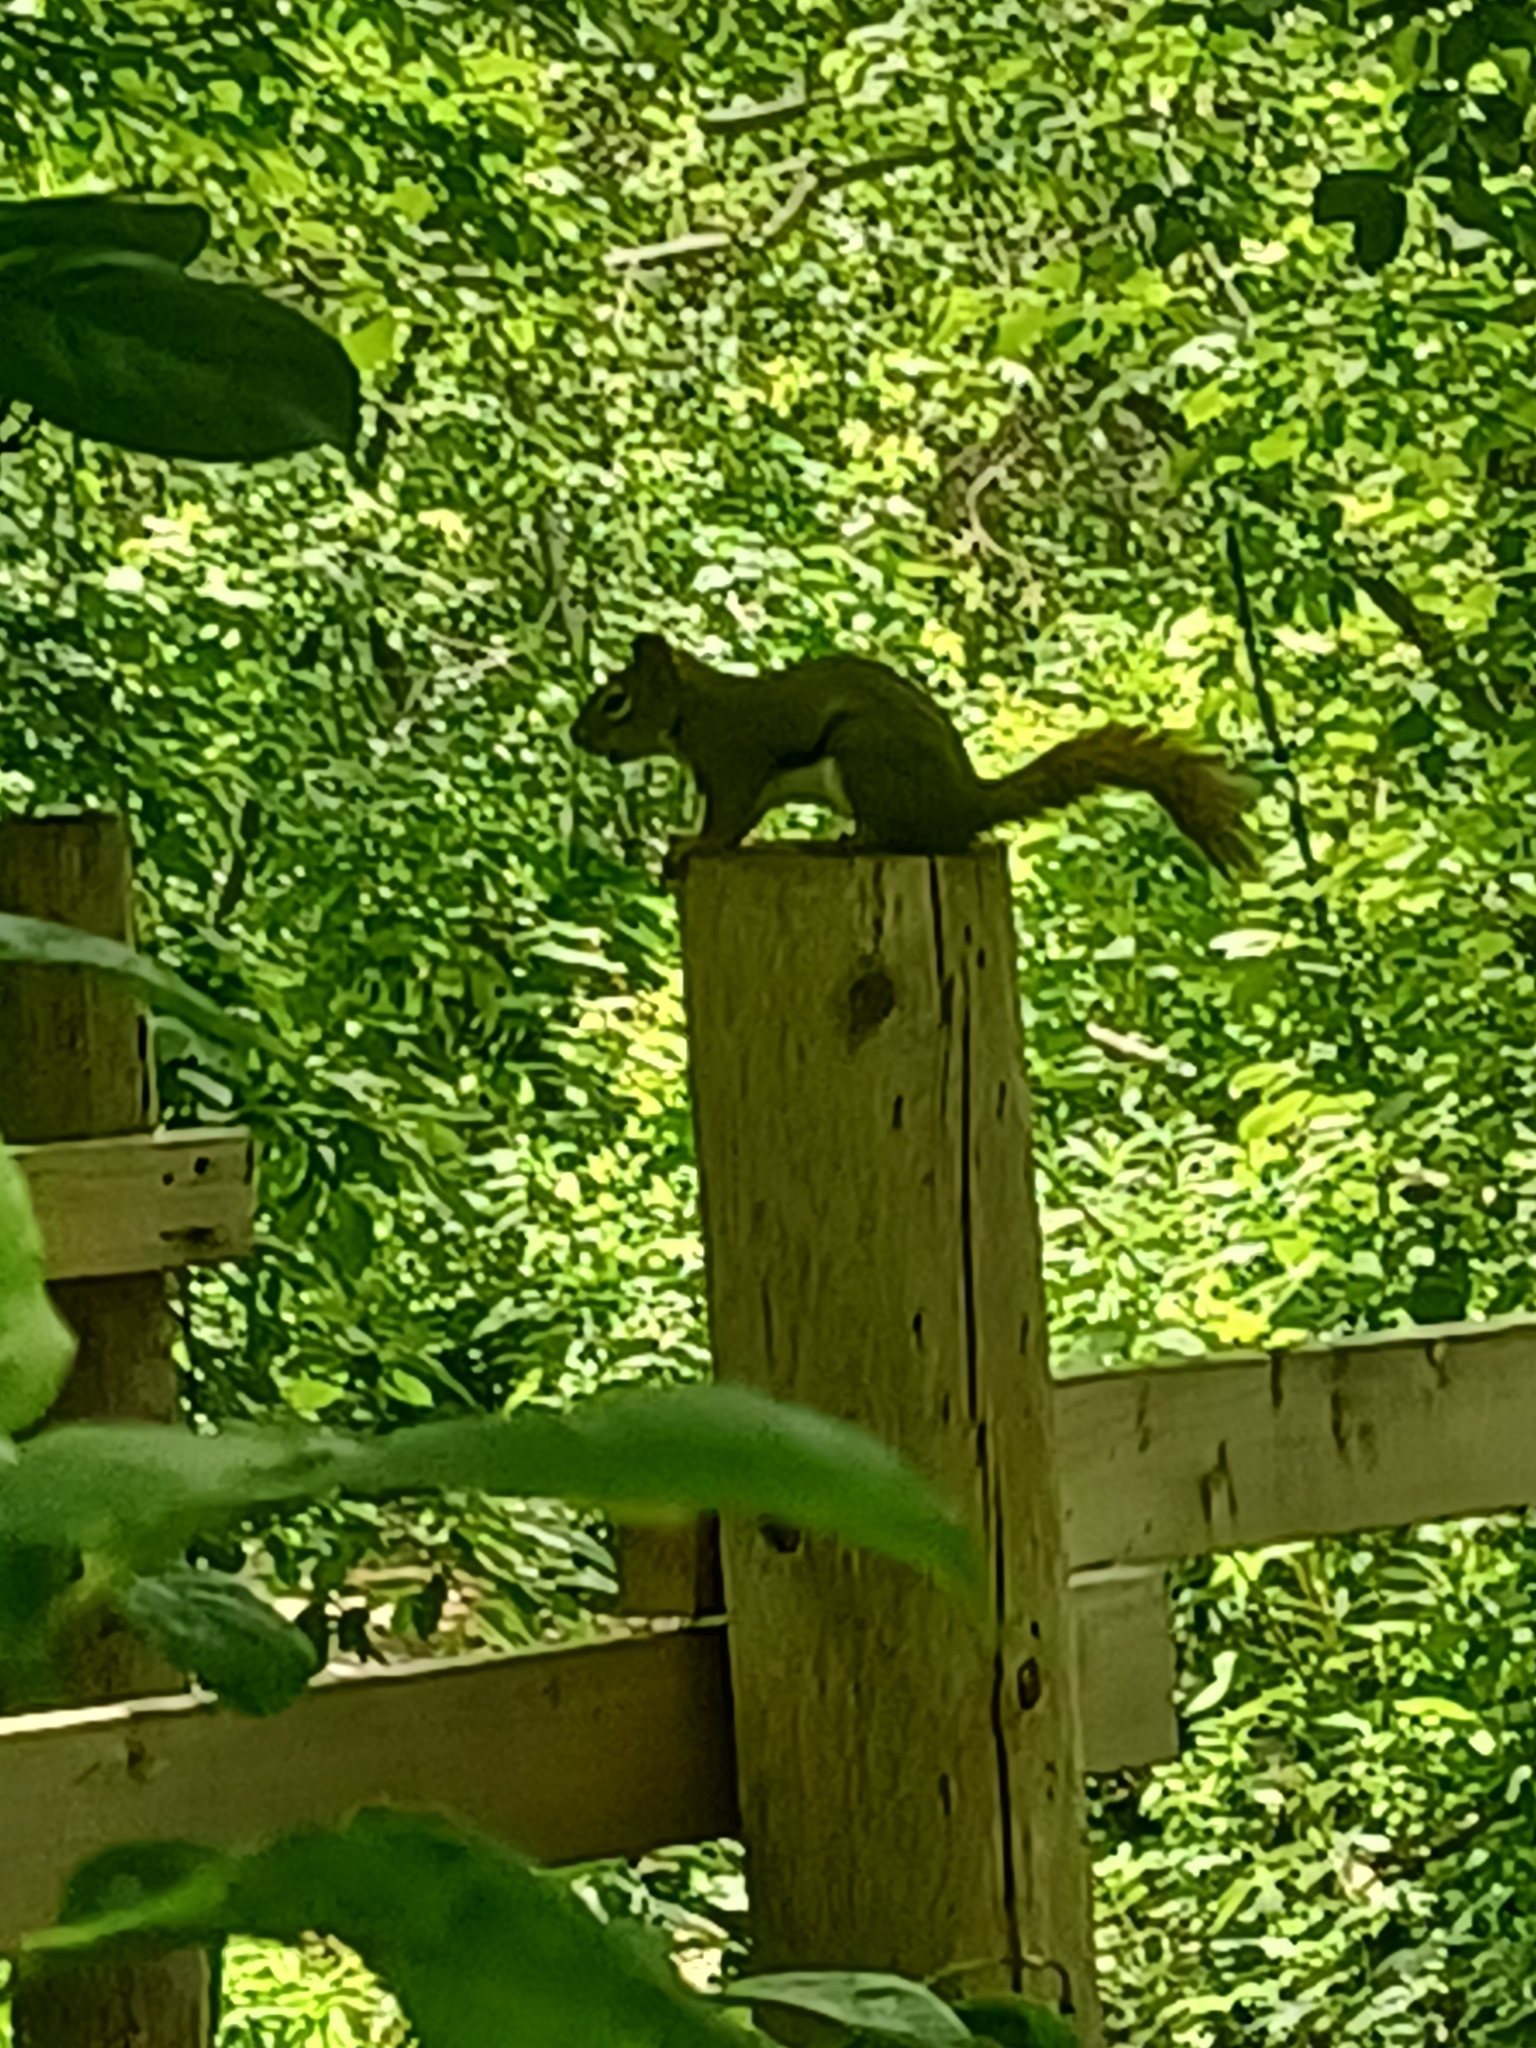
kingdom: Animalia
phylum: Chordata
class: Mammalia
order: Rodentia
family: Sciuridae
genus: Tamiasciurus
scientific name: Tamiasciurus hudsonicus
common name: Red squirrel
